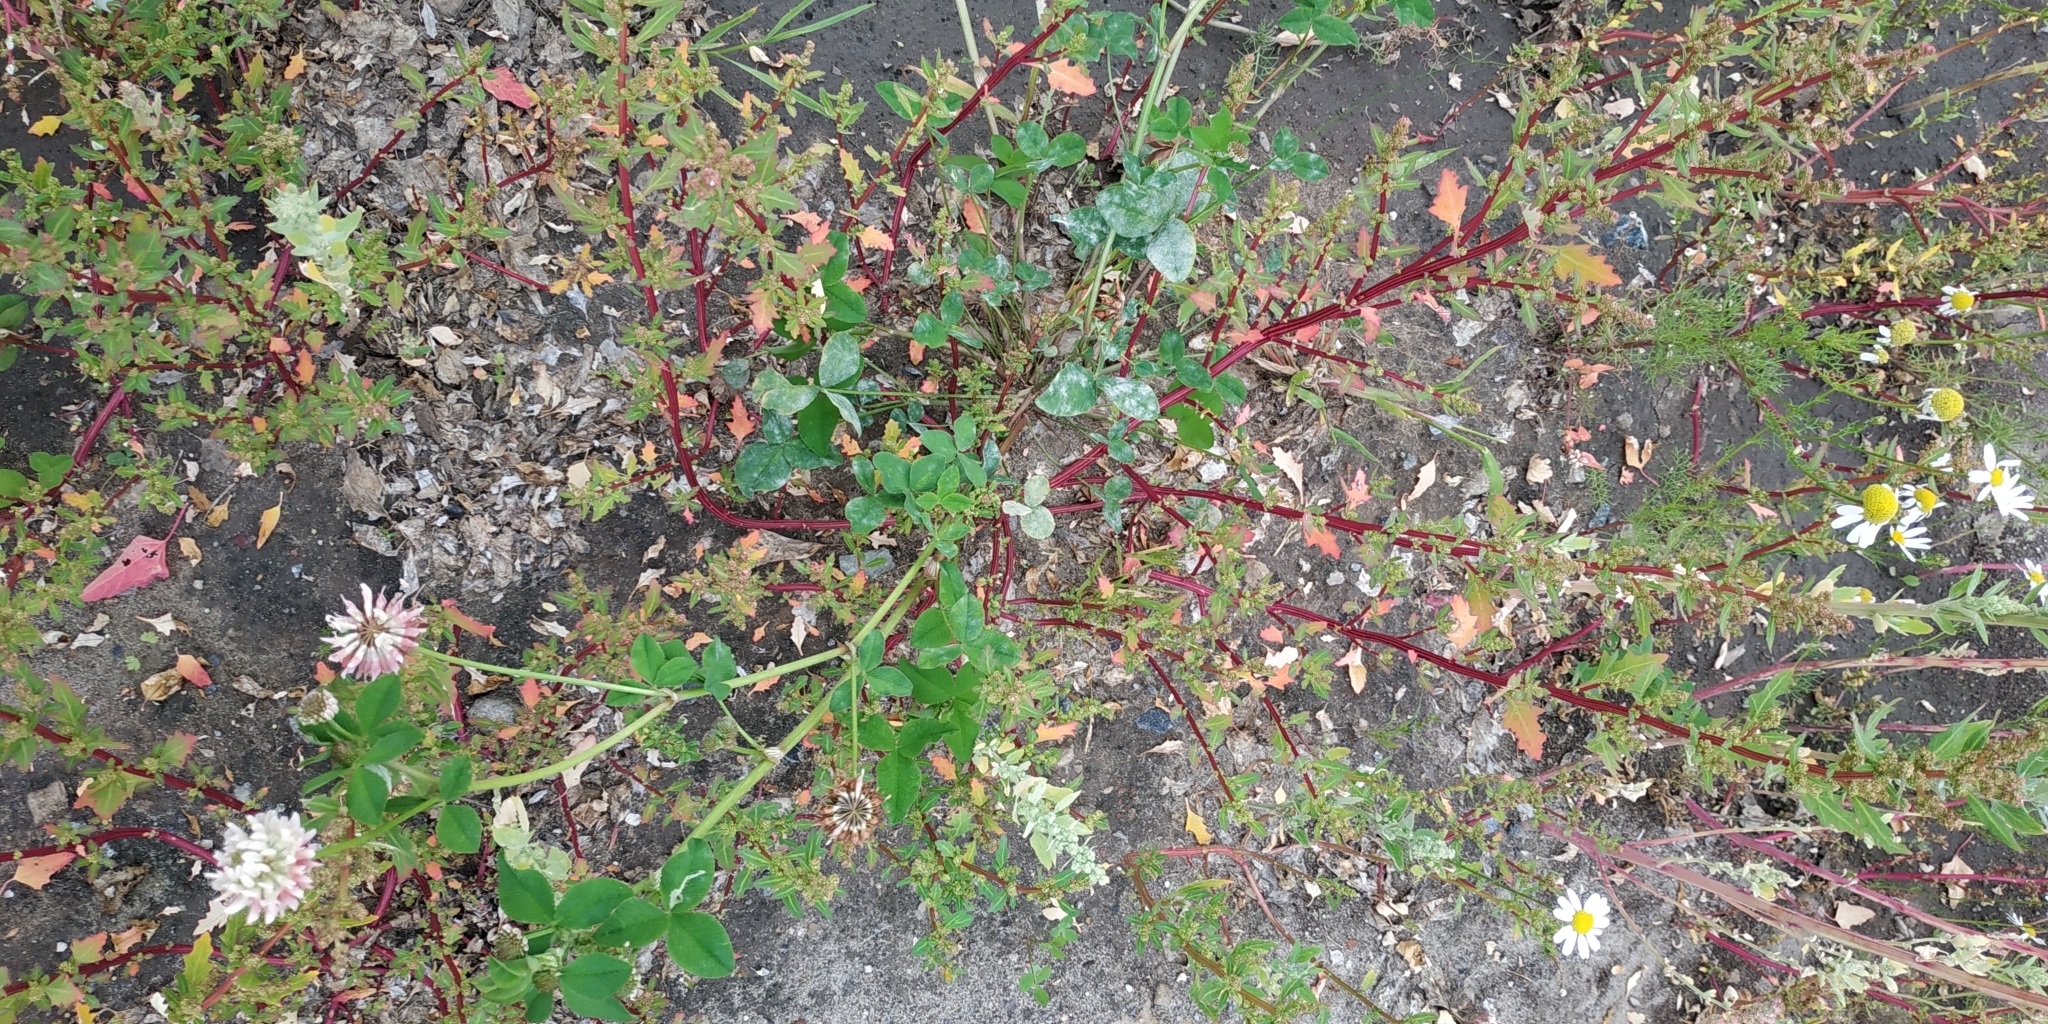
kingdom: Plantae
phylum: Tracheophyta
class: Magnoliopsida
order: Caryophyllales
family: Amaranthaceae
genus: Oxybasis
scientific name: Oxybasis glauca
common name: Glaucous goosefoot
